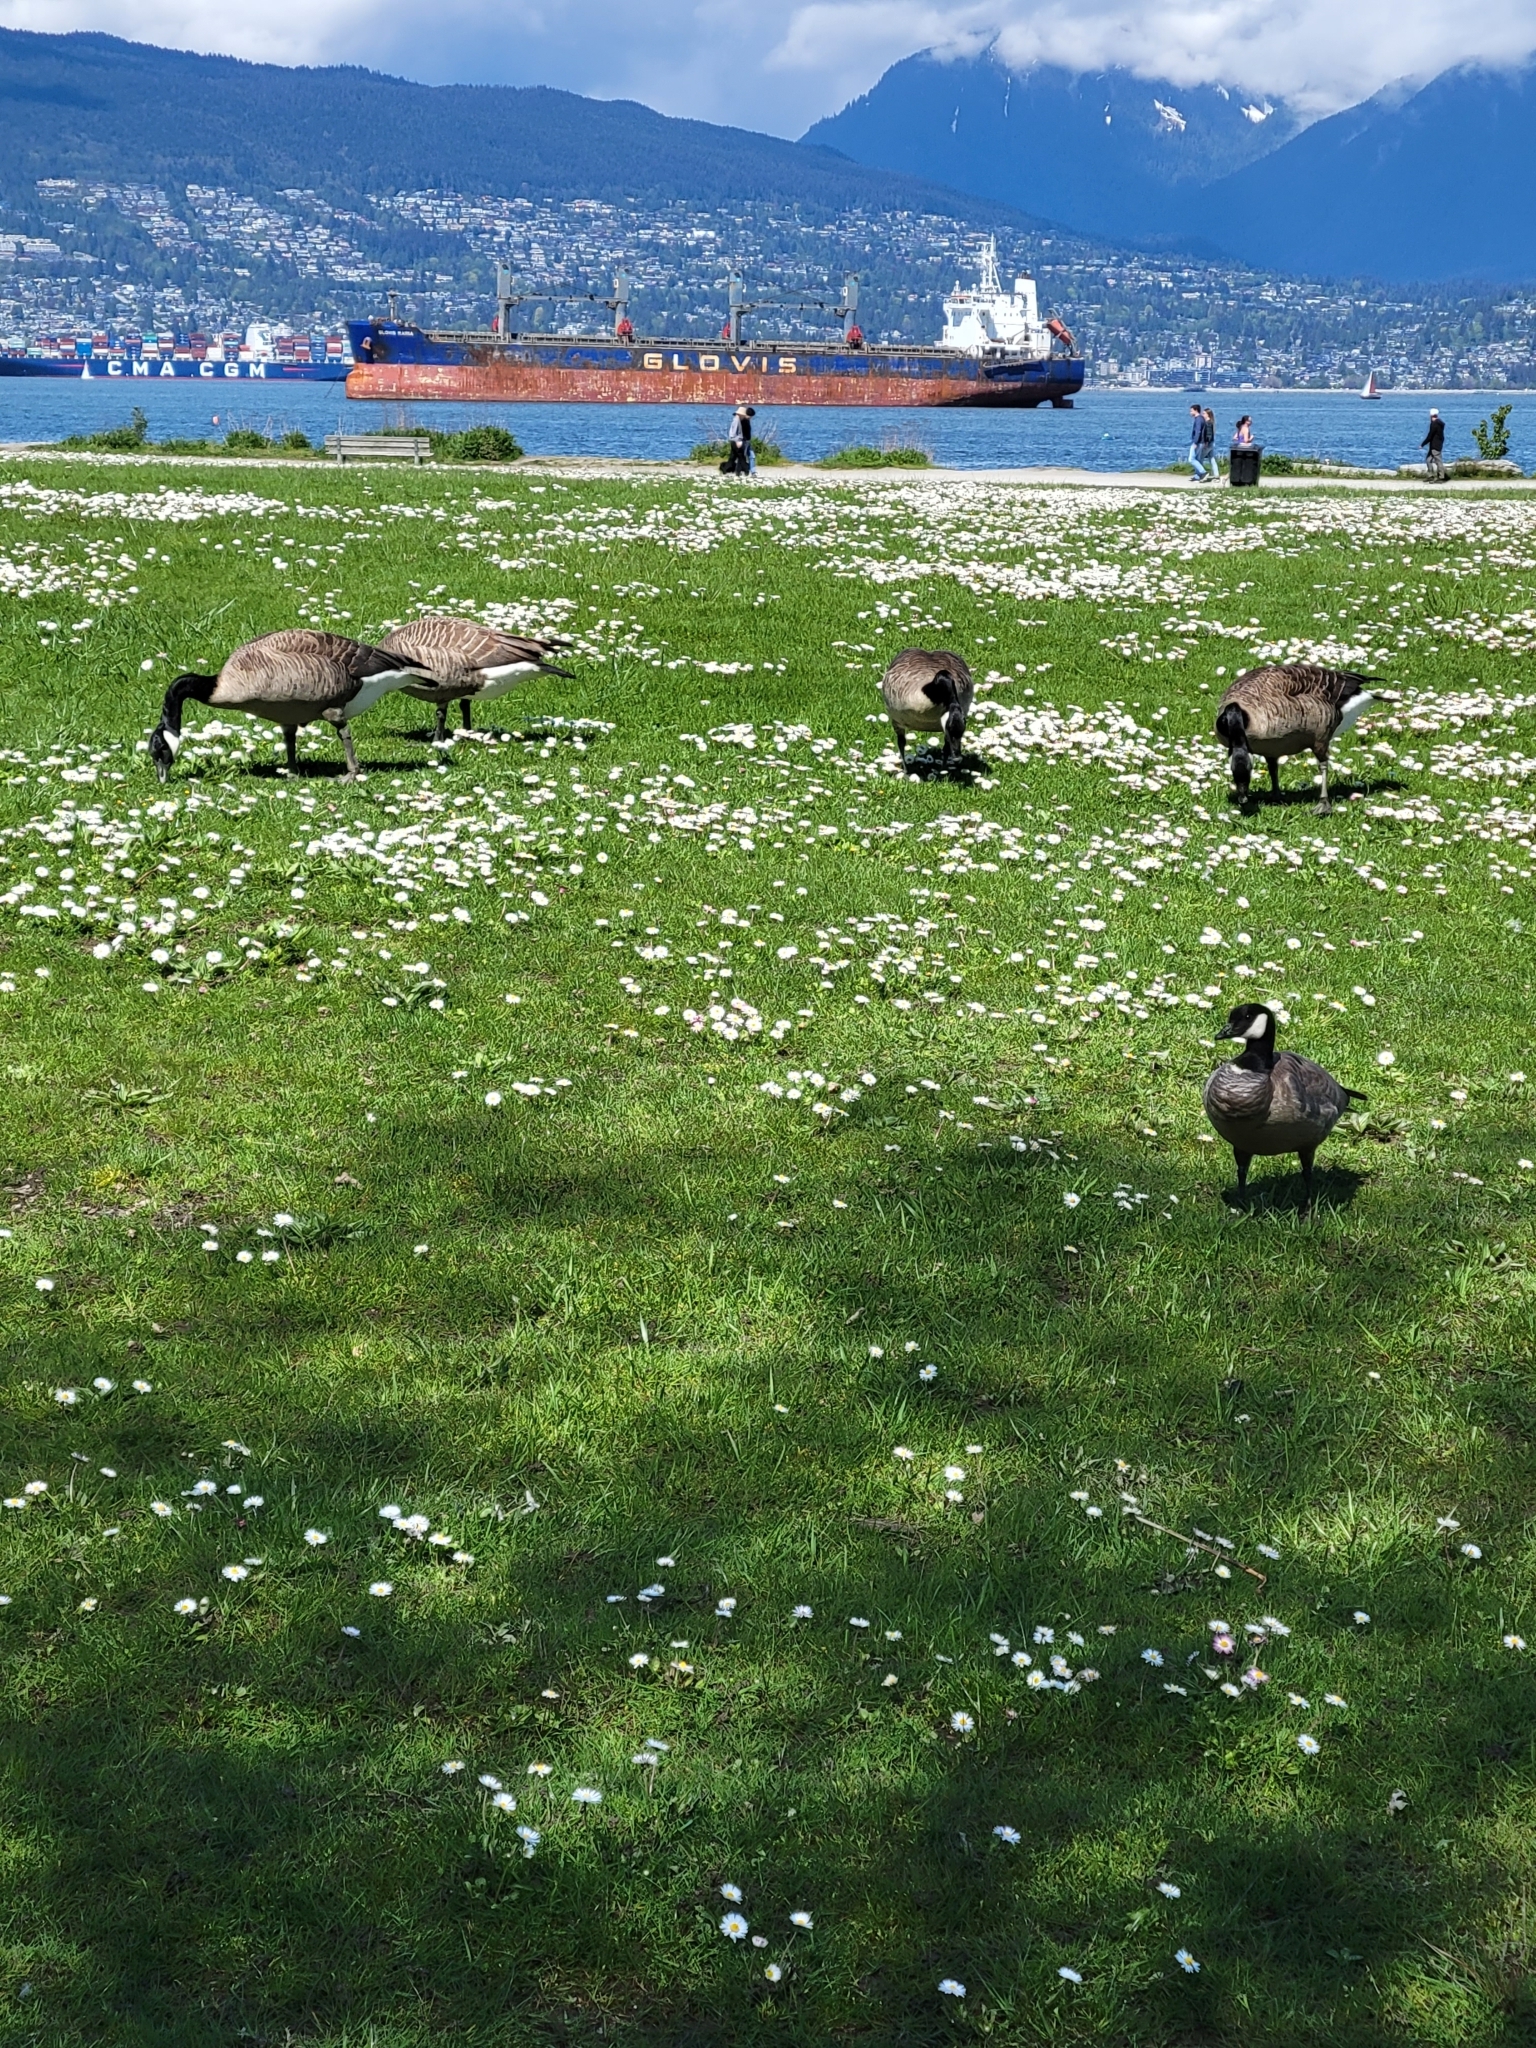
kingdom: Animalia
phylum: Chordata
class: Aves
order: Anseriformes
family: Anatidae
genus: Branta
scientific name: Branta hutchinsii
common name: Cackling goose
